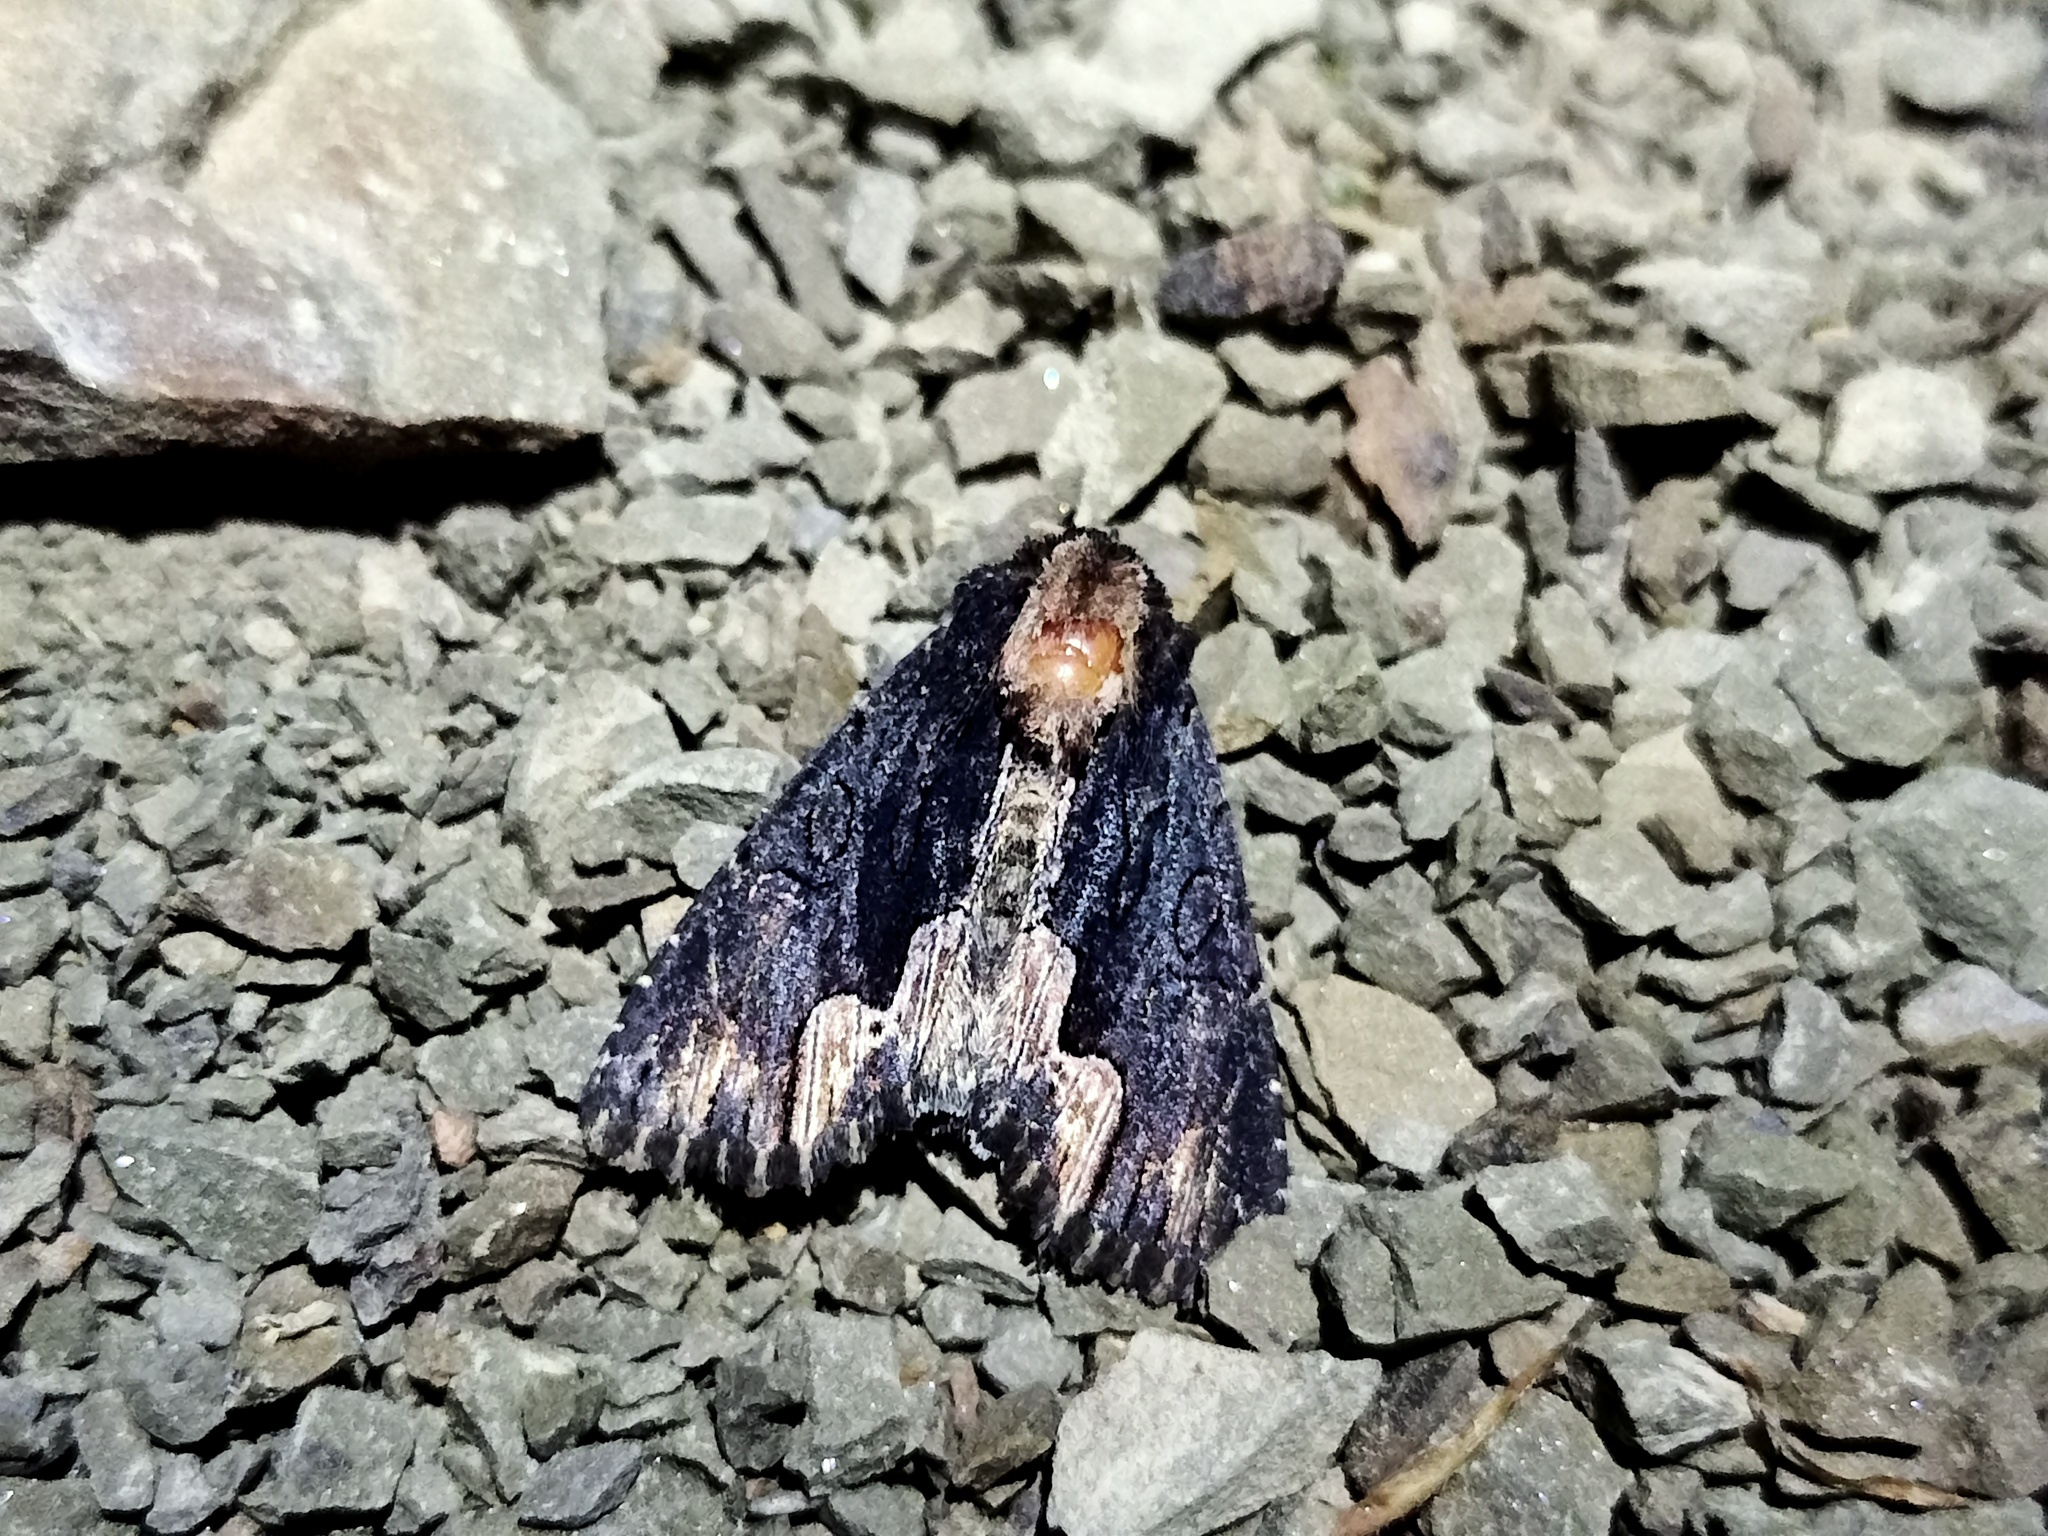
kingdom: Animalia
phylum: Arthropoda
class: Insecta
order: Lepidoptera
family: Noctuidae
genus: Dypterygia
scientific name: Dypterygia scabriuscula
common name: Bird's wing
